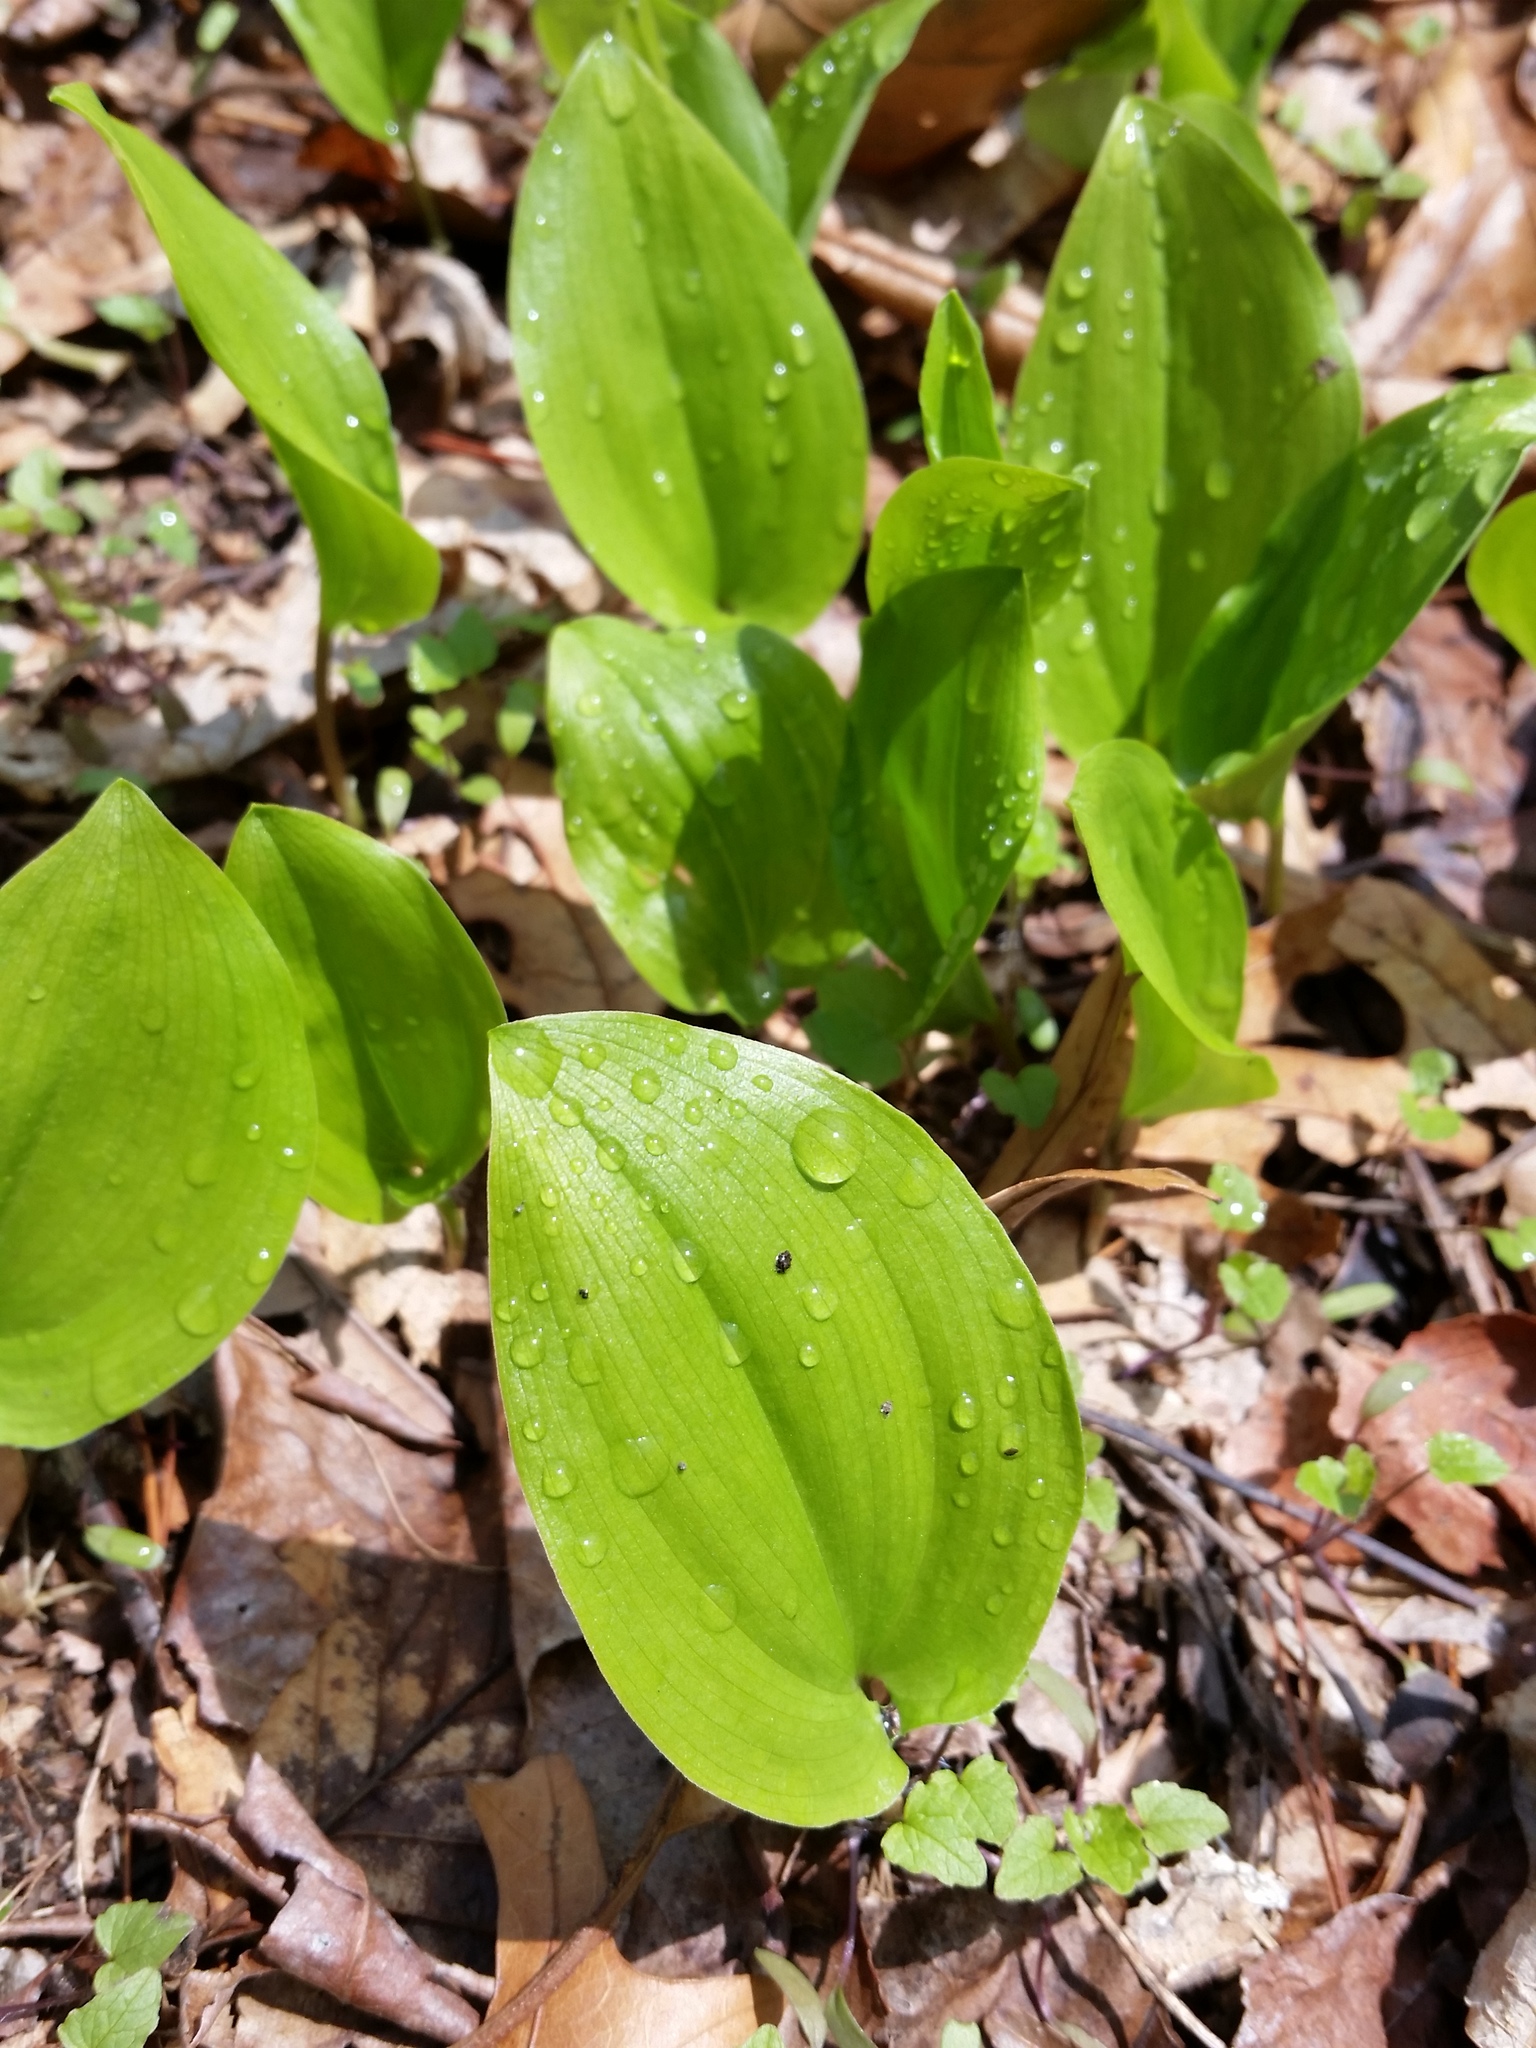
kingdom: Plantae
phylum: Tracheophyta
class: Liliopsida
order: Asparagales
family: Asparagaceae
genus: Maianthemum
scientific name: Maianthemum canadense
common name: False lily-of-the-valley
